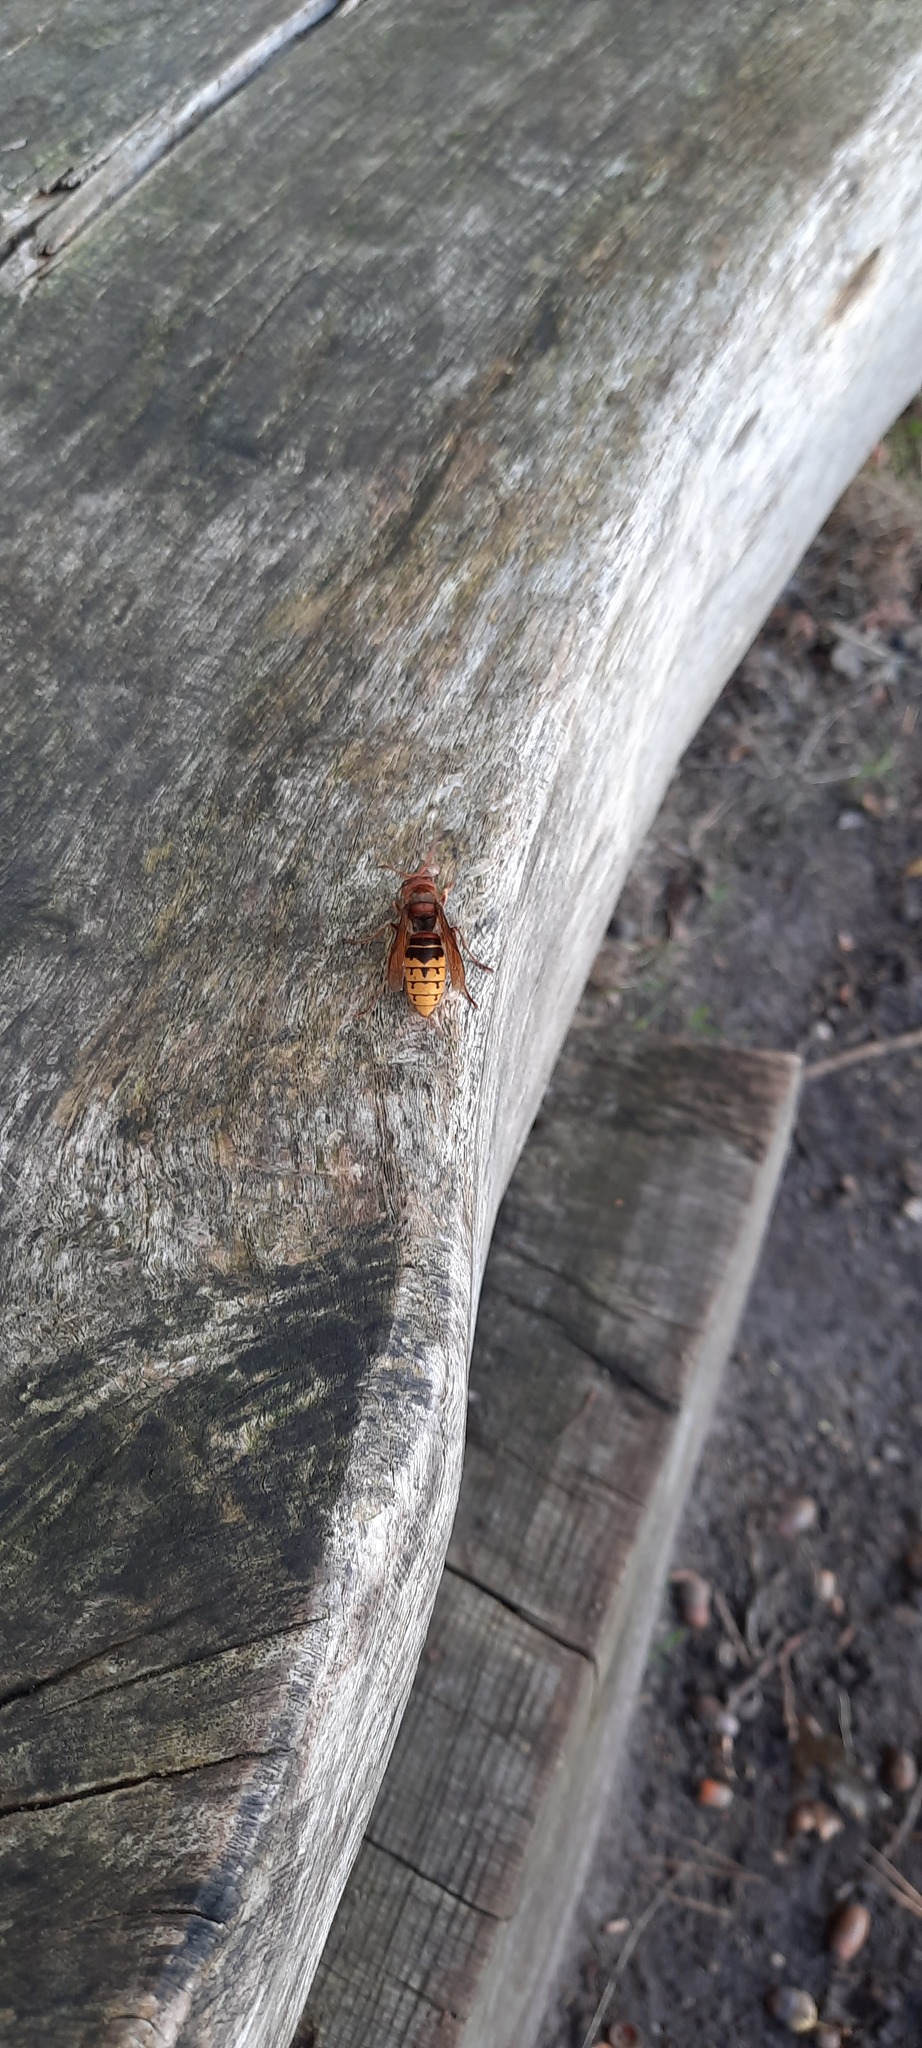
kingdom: Animalia
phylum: Arthropoda
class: Insecta
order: Hymenoptera
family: Vespidae
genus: Vespa
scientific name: Vespa crabro
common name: Hornet
